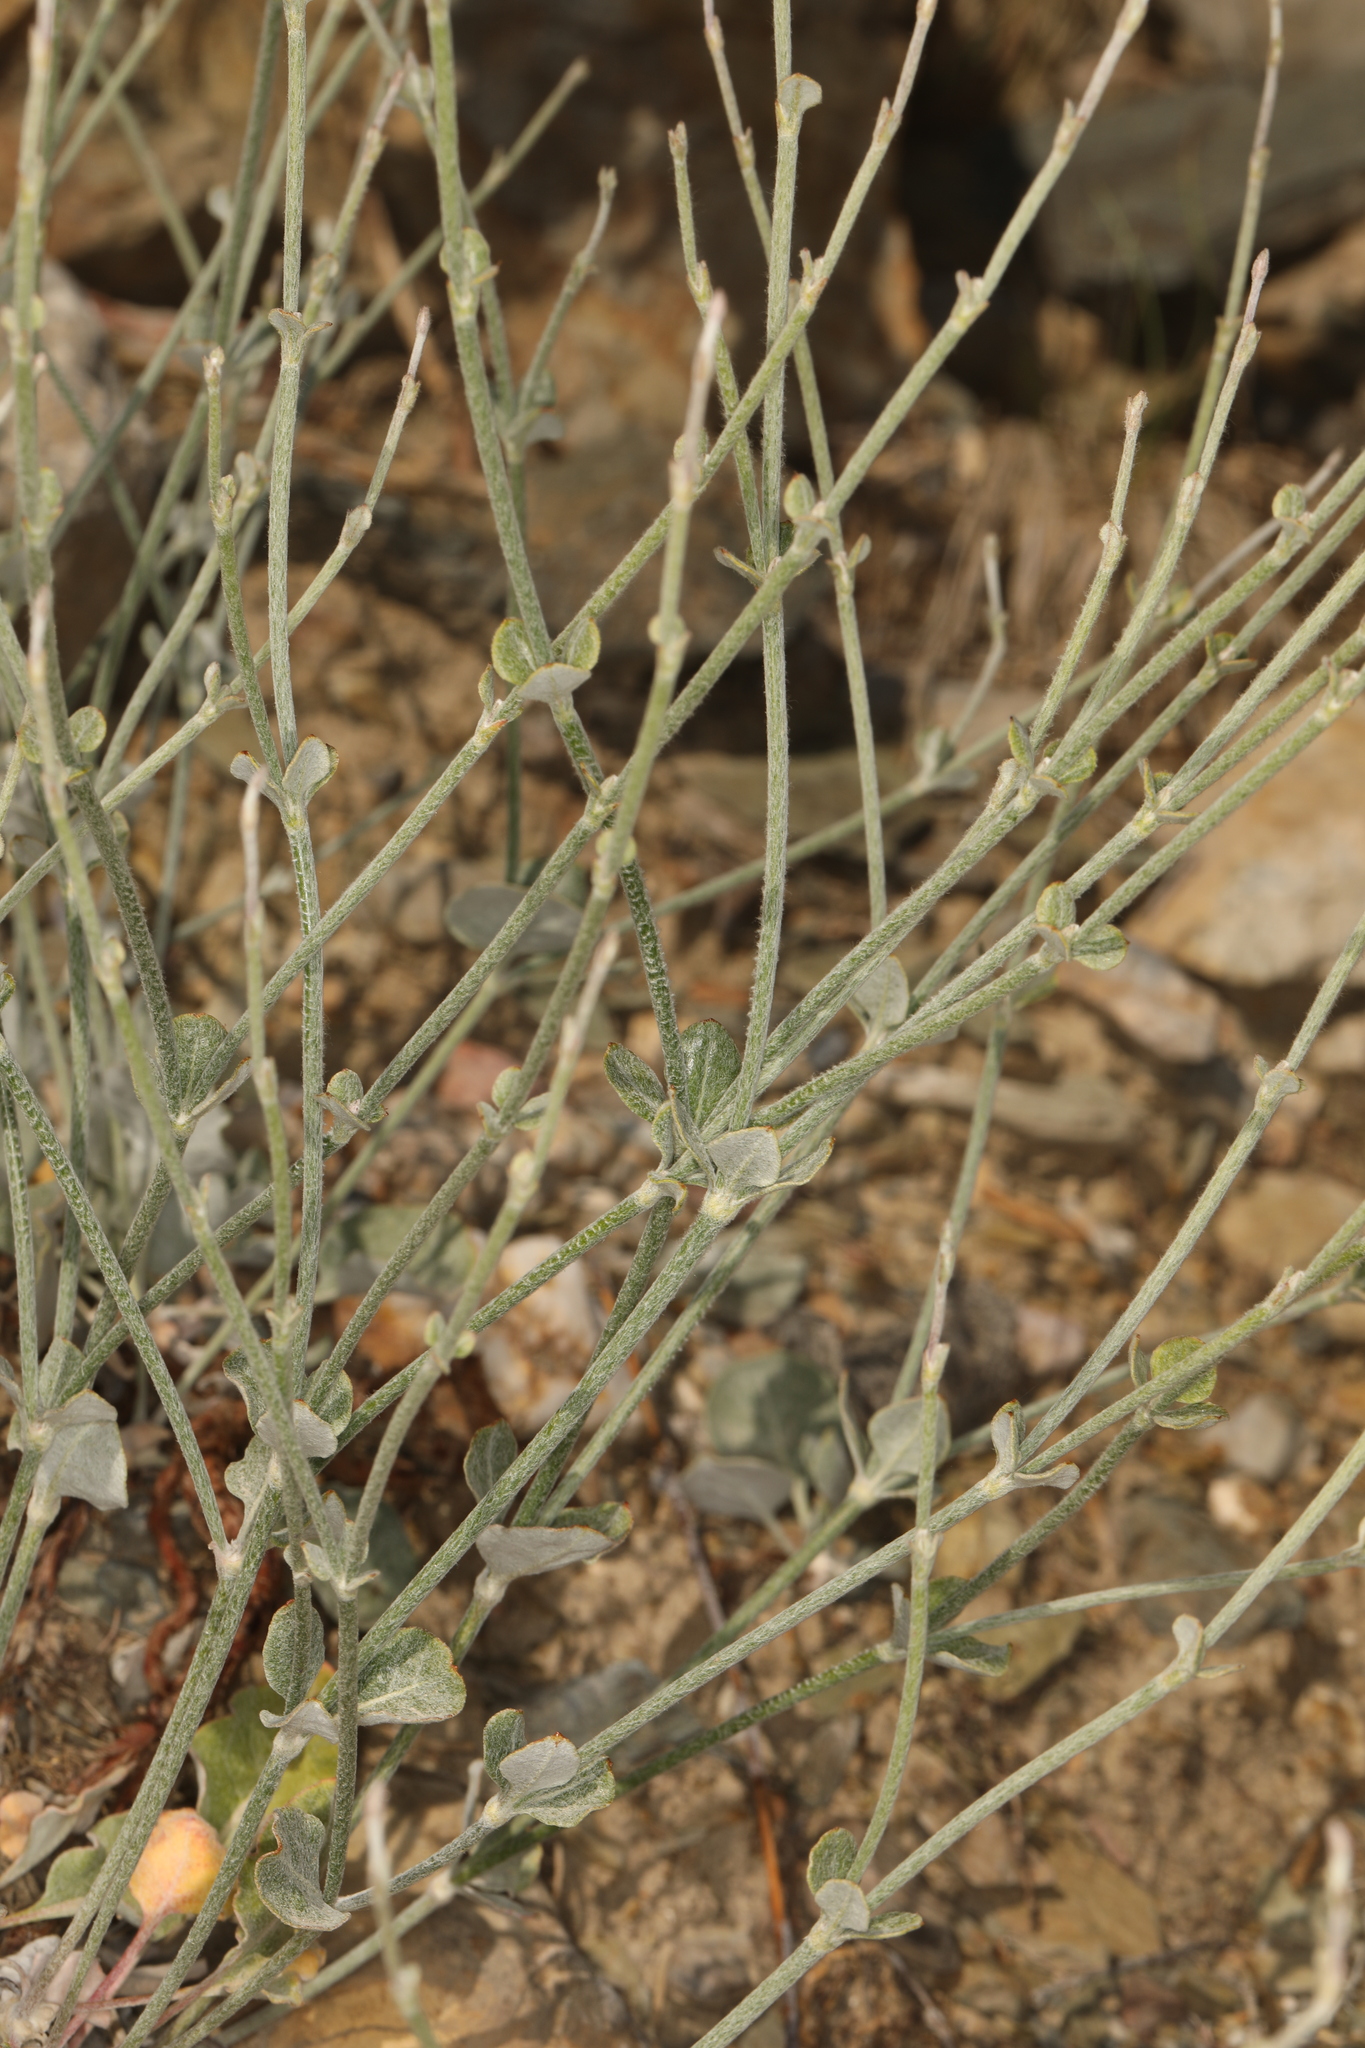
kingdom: Plantae
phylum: Tracheophyta
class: Magnoliopsida
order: Caryophyllales
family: Polygonaceae
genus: Eriogonum
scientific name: Eriogonum panamintense
